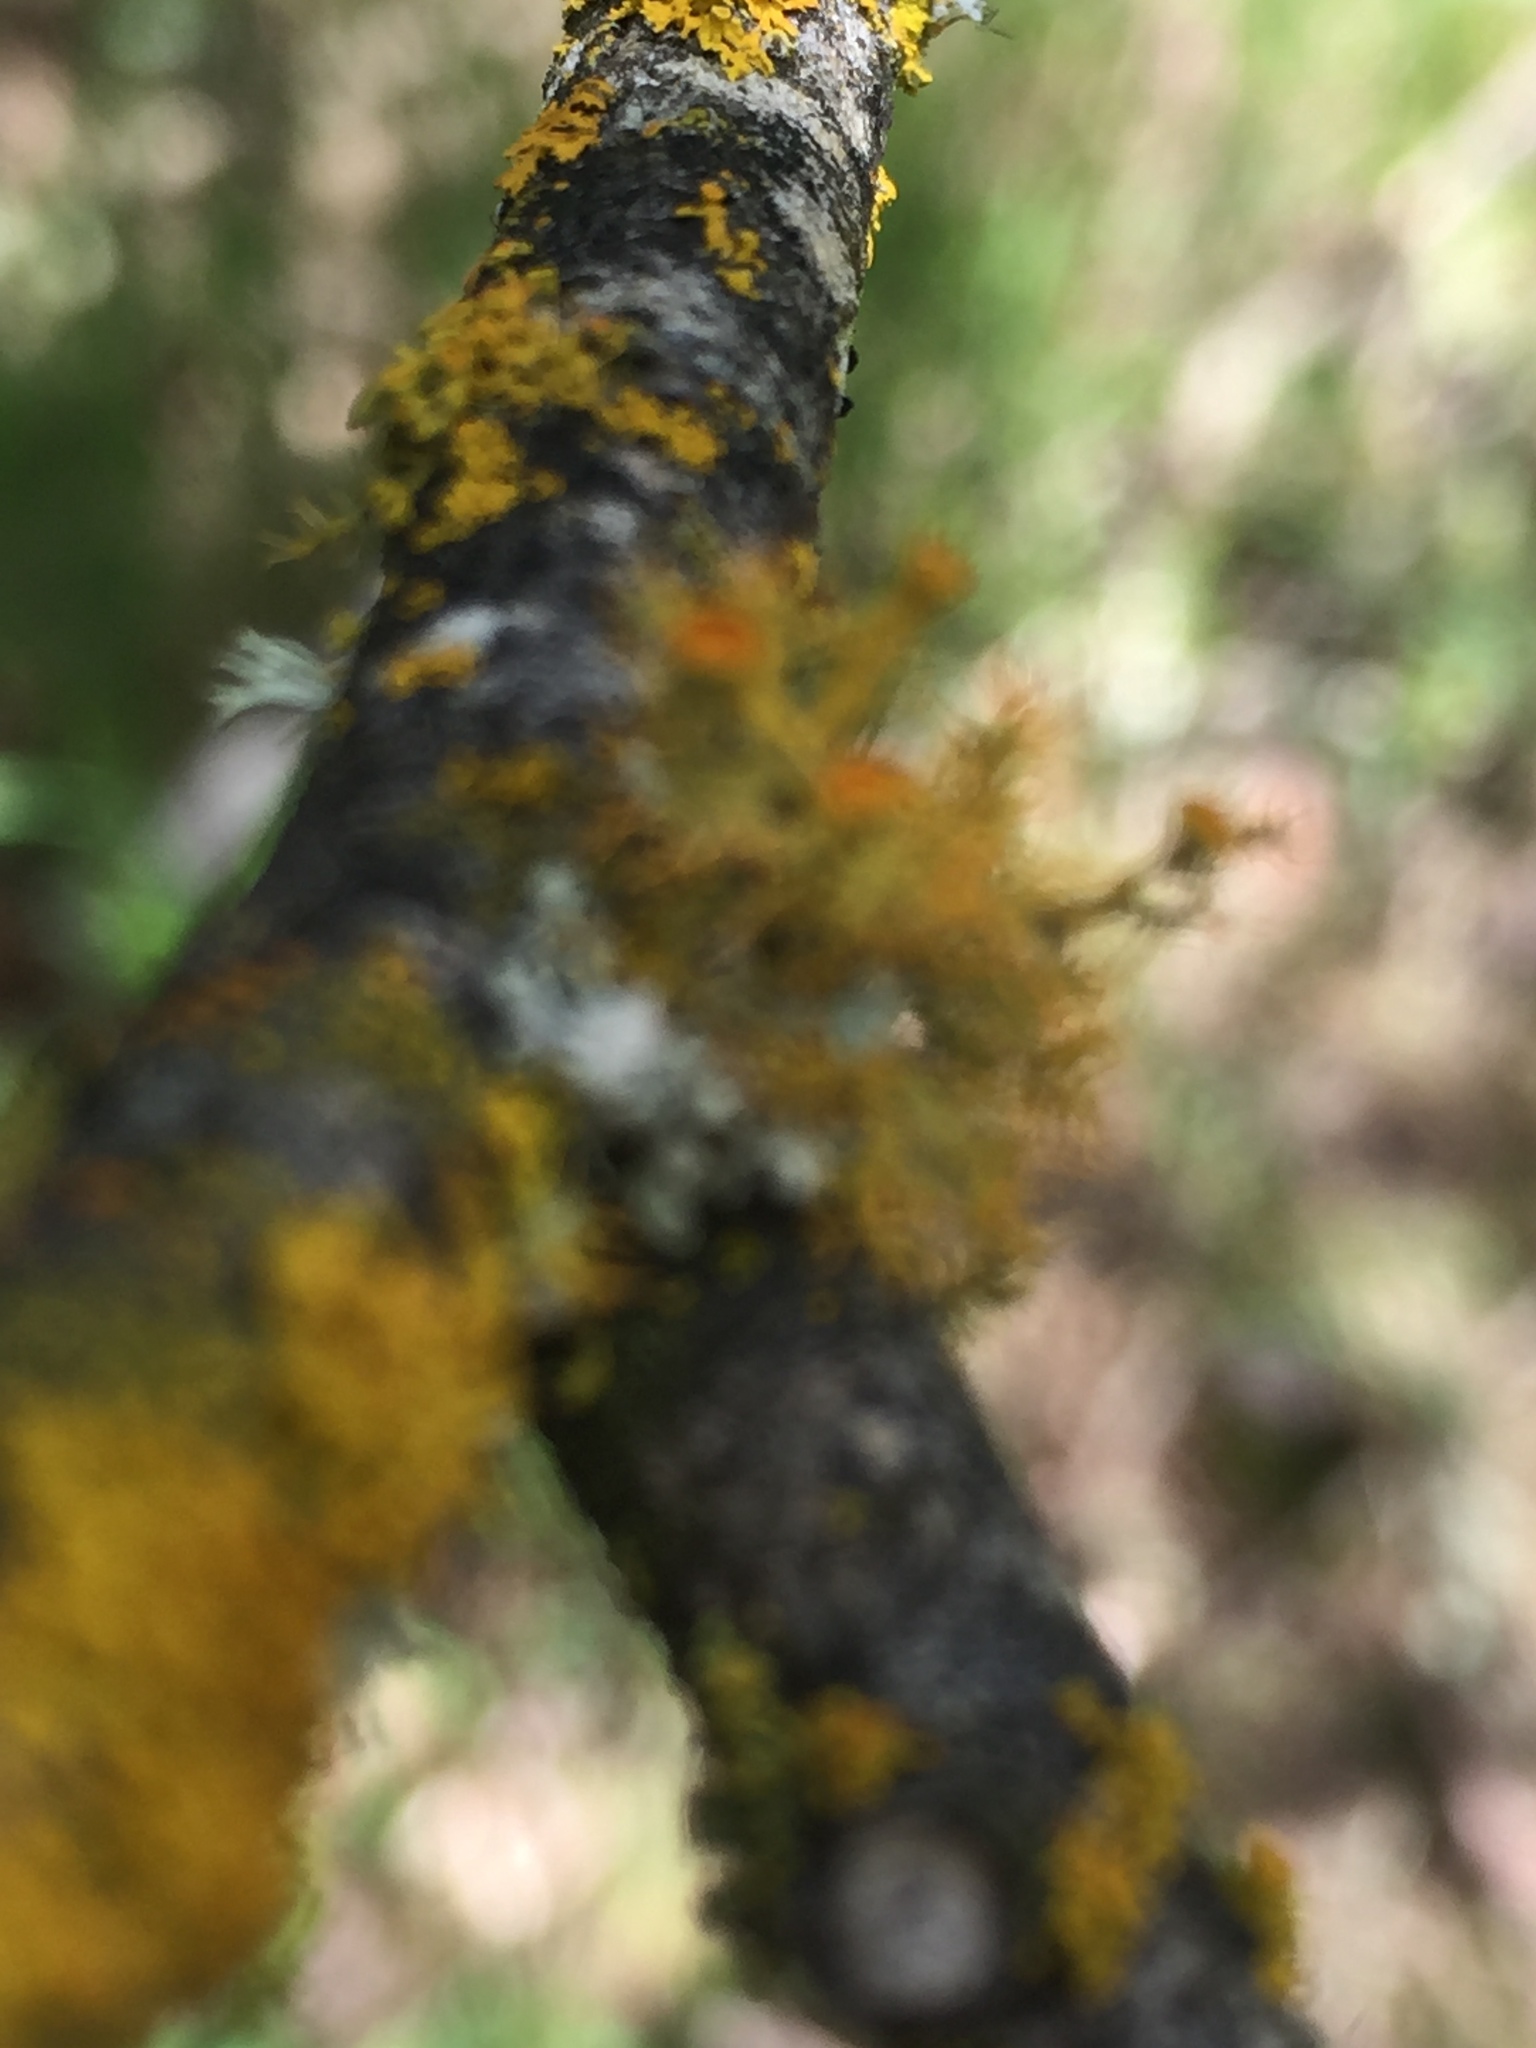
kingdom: Fungi
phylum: Ascomycota
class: Lecanoromycetes
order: Teloschistales
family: Teloschistaceae
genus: Niorma
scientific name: Niorma chrysophthalma
